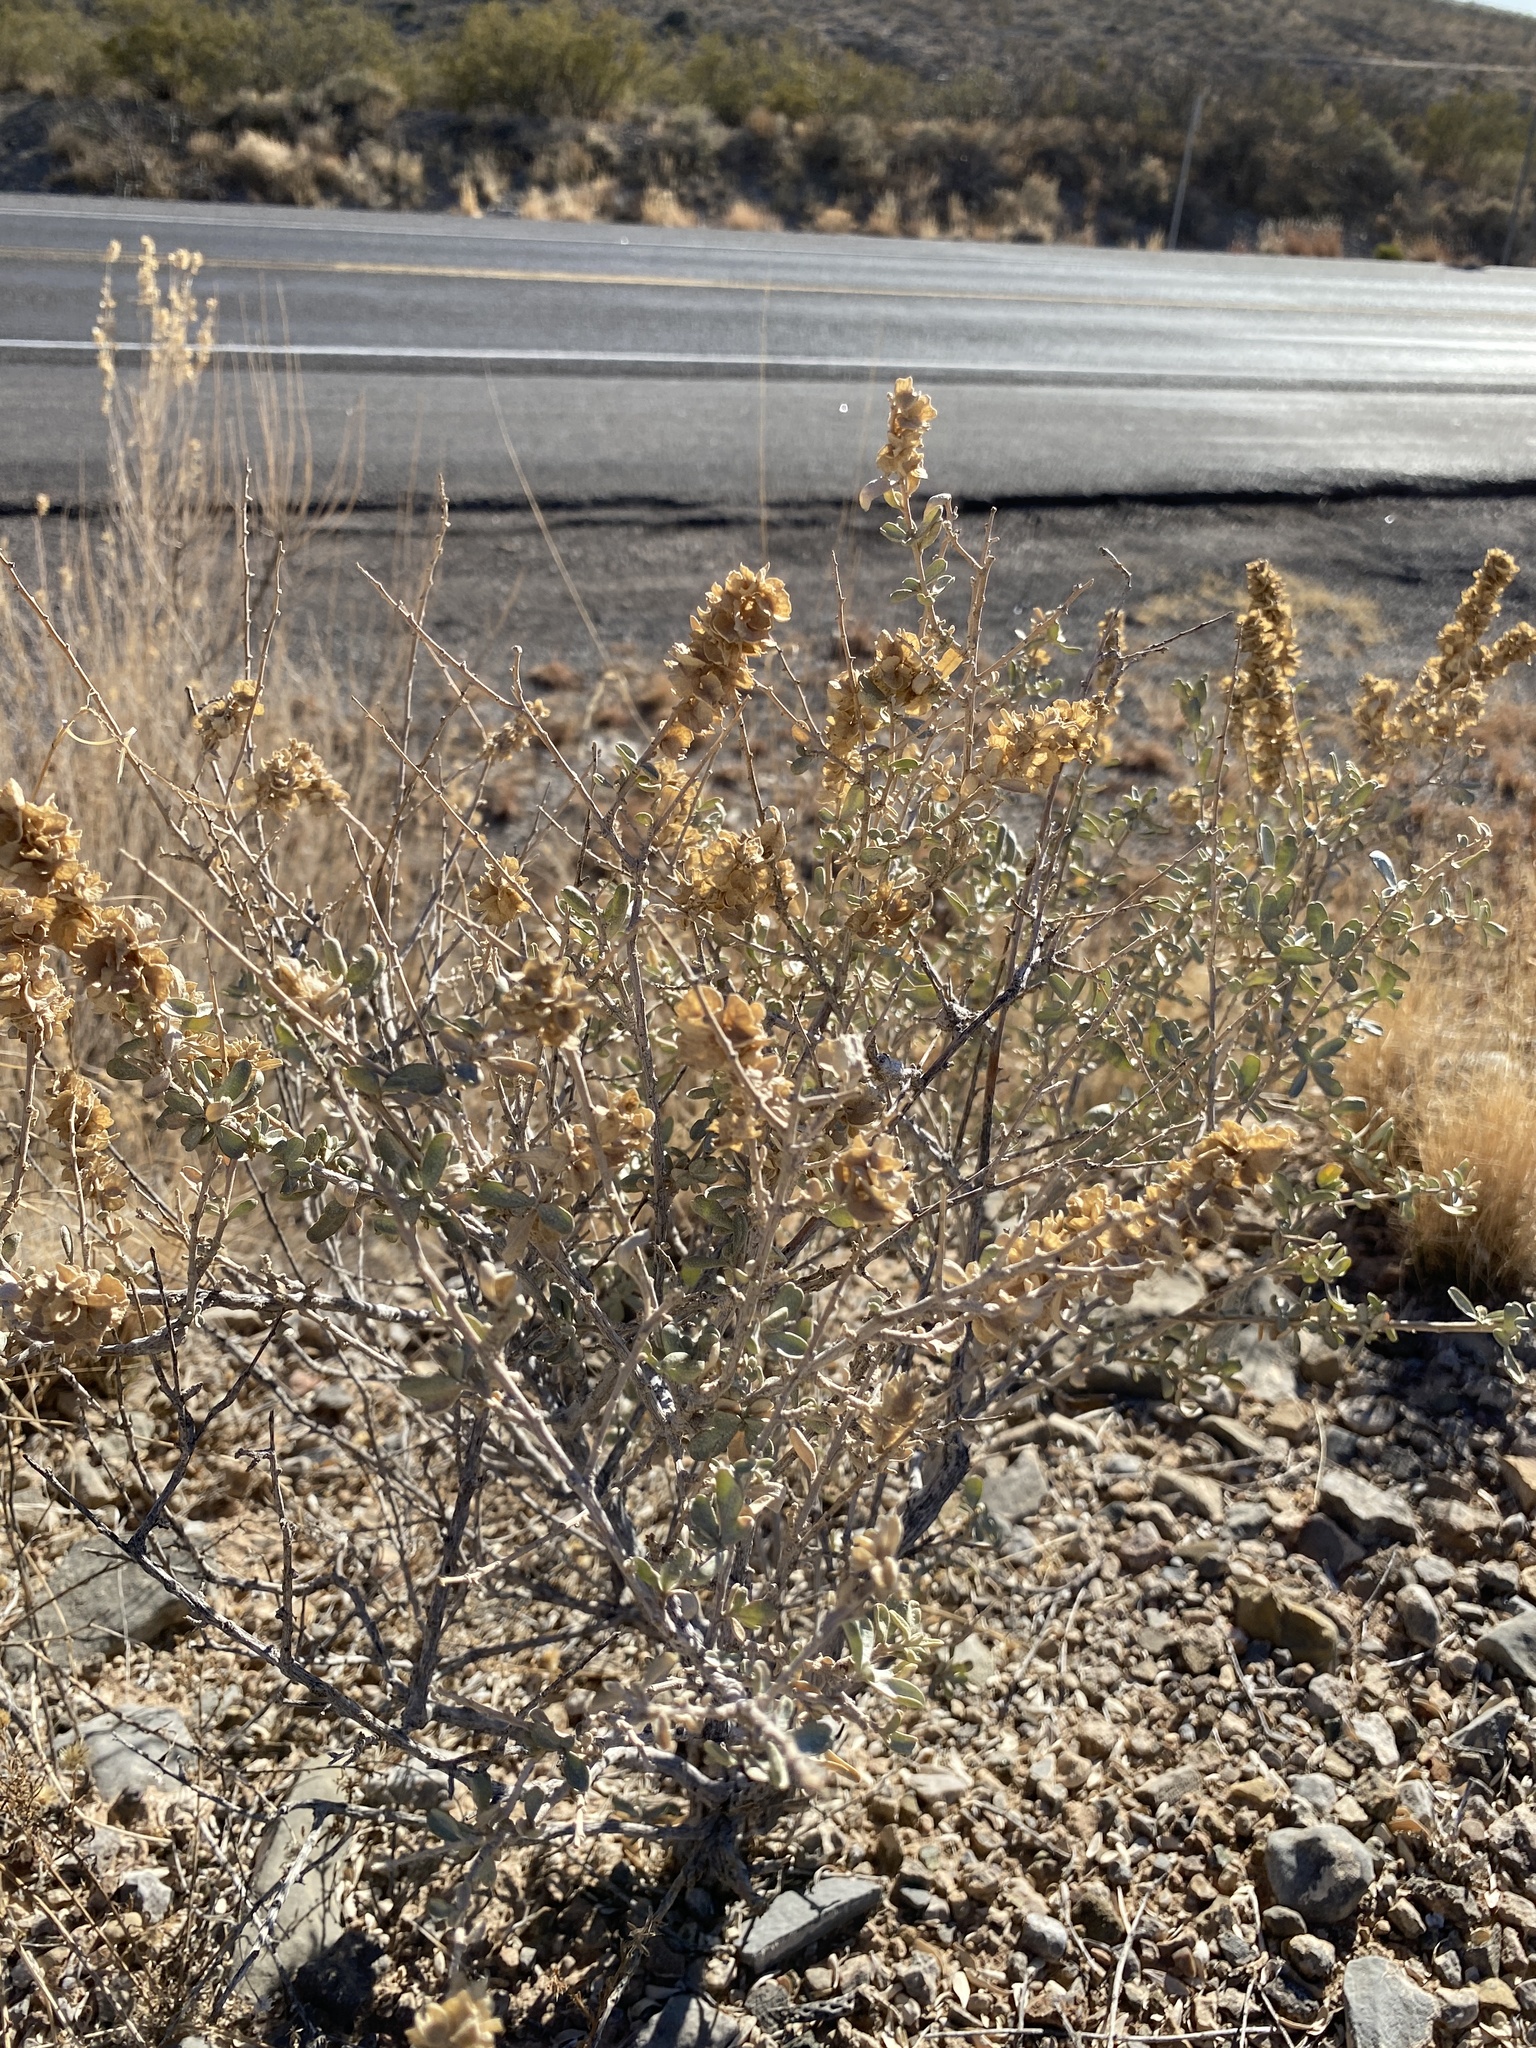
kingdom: Plantae
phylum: Tracheophyta
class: Magnoliopsida
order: Caryophyllales
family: Amaranthaceae
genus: Atriplex
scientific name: Atriplex canescens
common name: Four-wing saltbush
